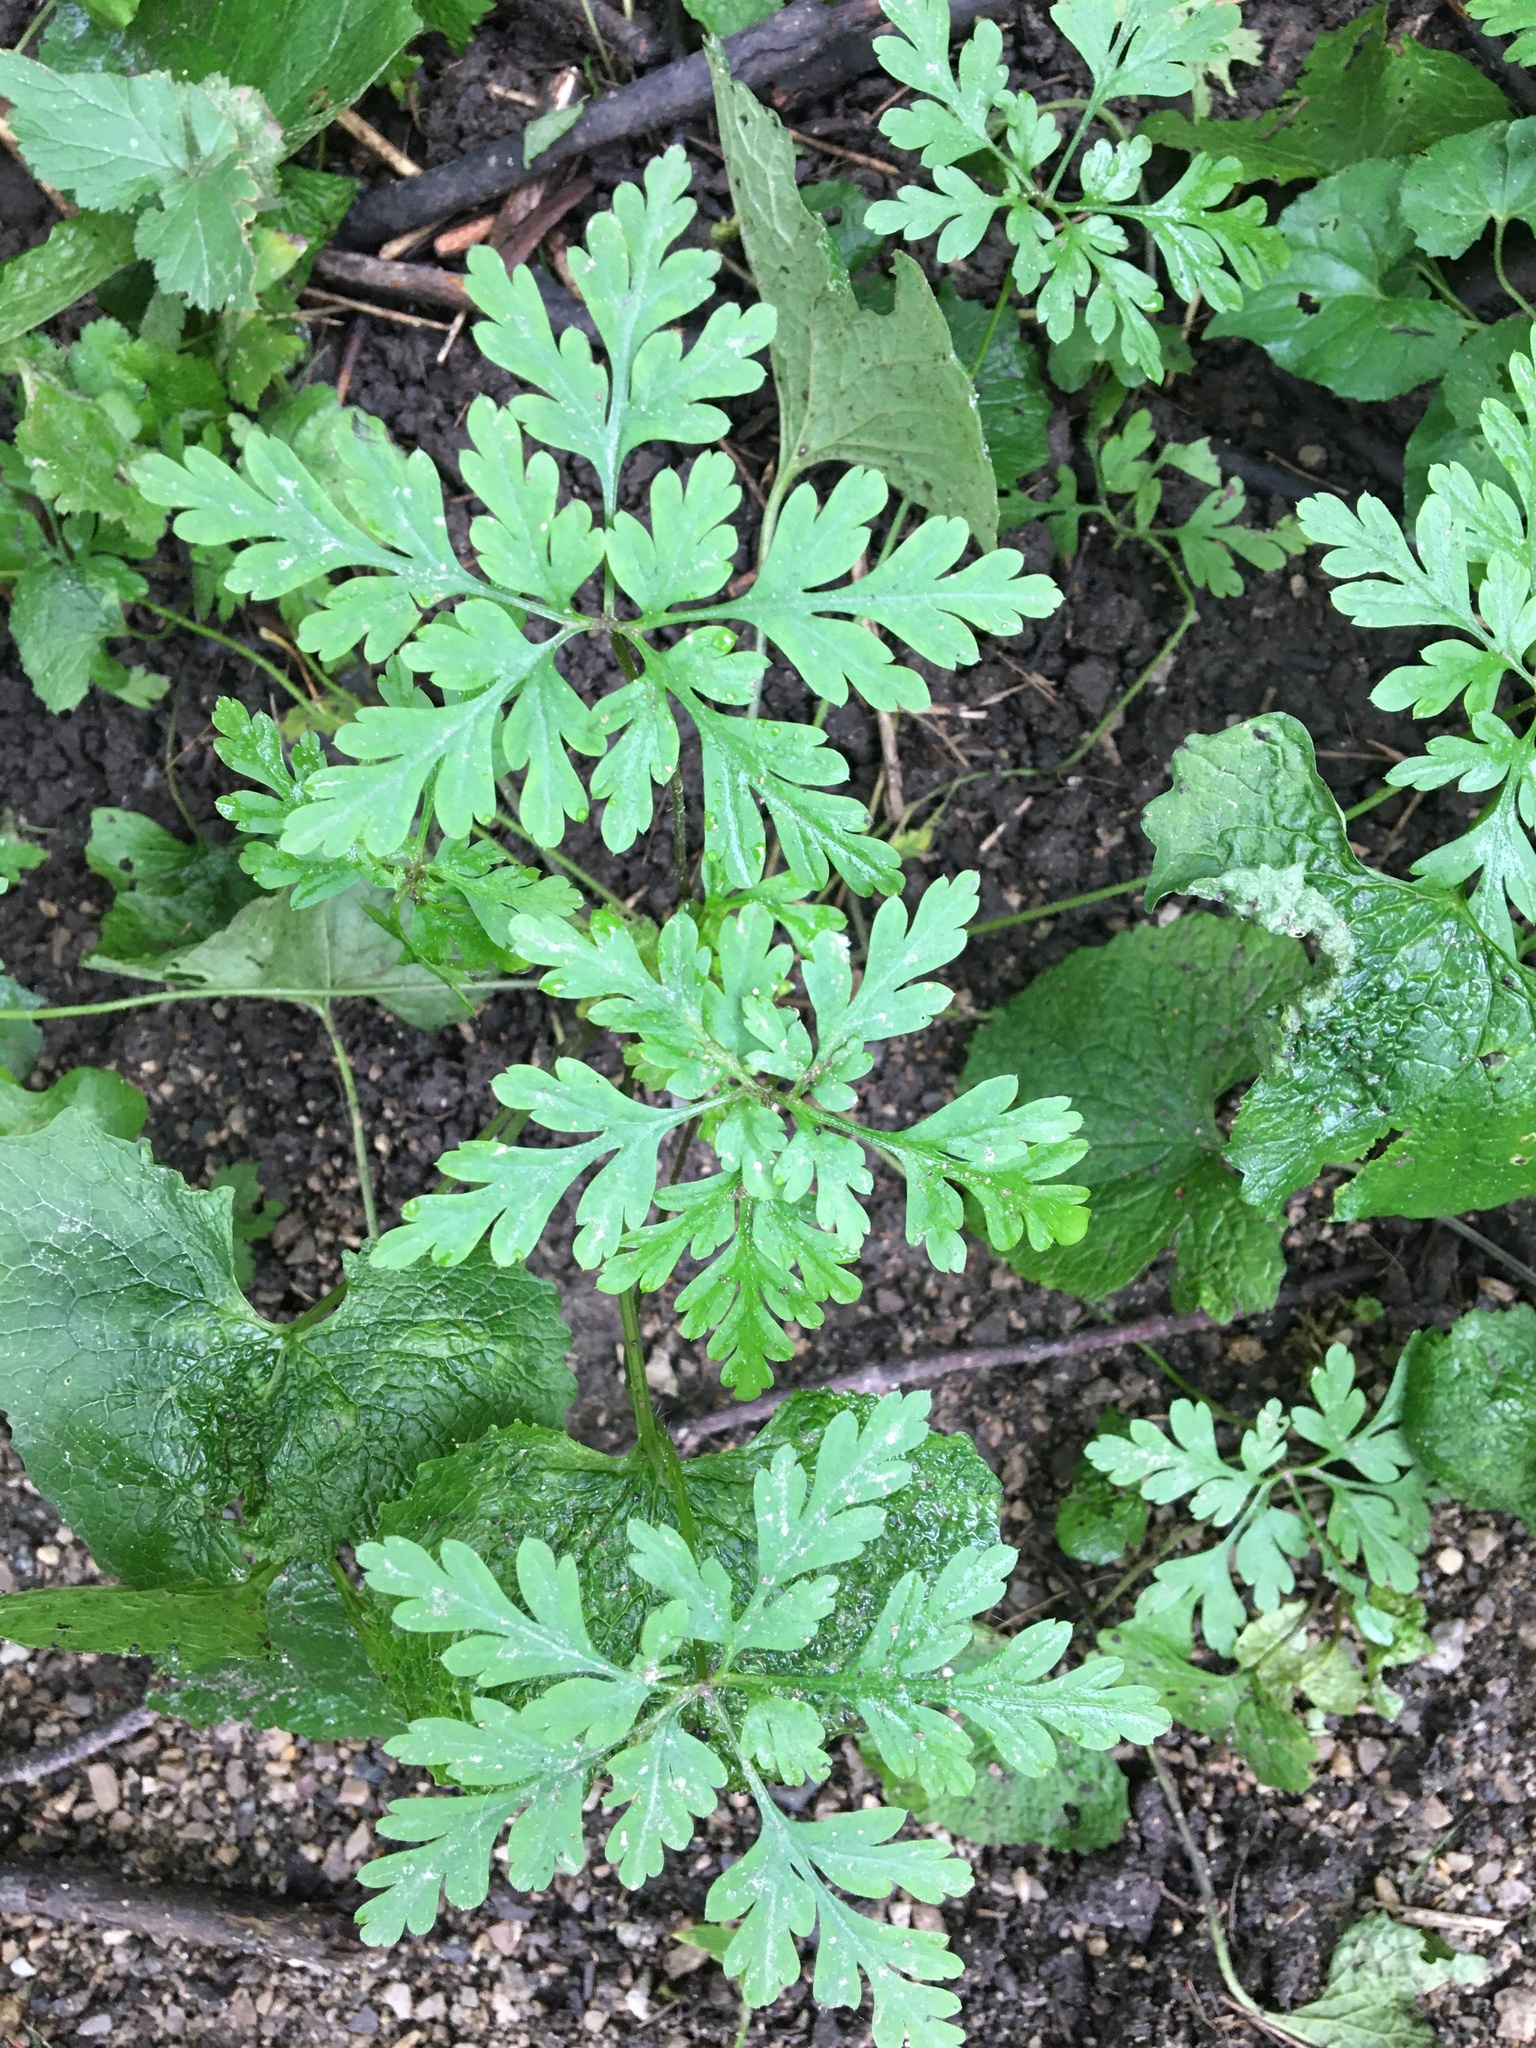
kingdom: Plantae
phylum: Tracheophyta
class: Magnoliopsida
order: Geraniales
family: Geraniaceae
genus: Geranium
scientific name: Geranium robertianum
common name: Herb-robert
